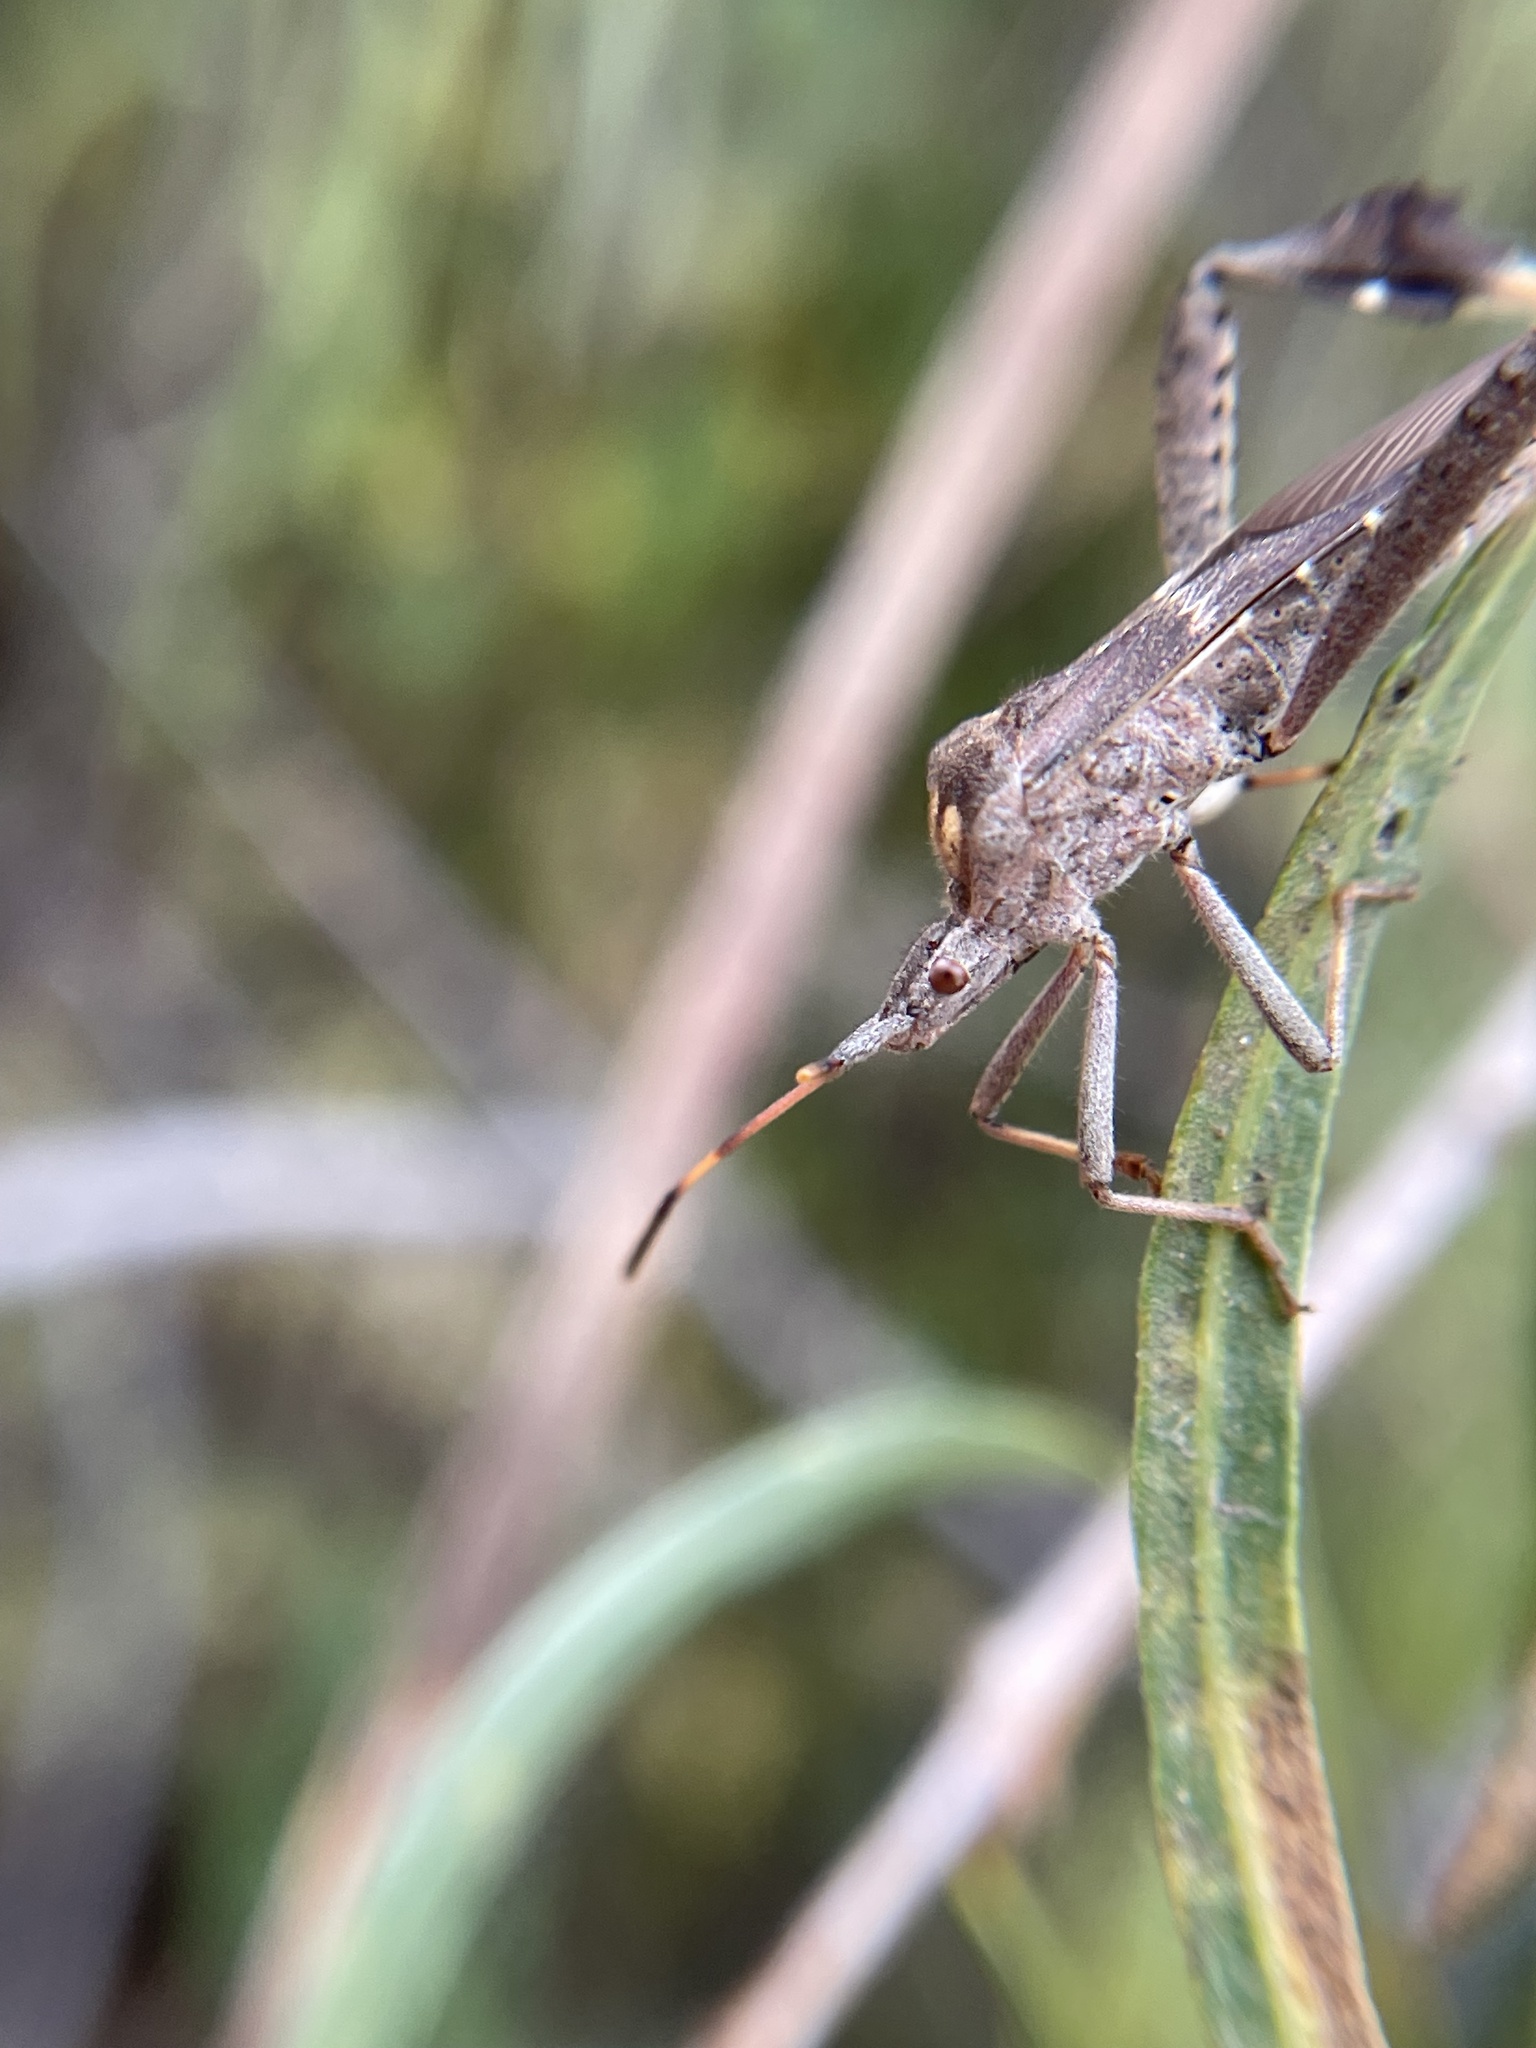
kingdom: Animalia
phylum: Arthropoda
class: Insecta
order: Hemiptera
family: Coreidae
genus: Leptoglossus
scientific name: Leptoglossus zonatus
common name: Large-legged bug
